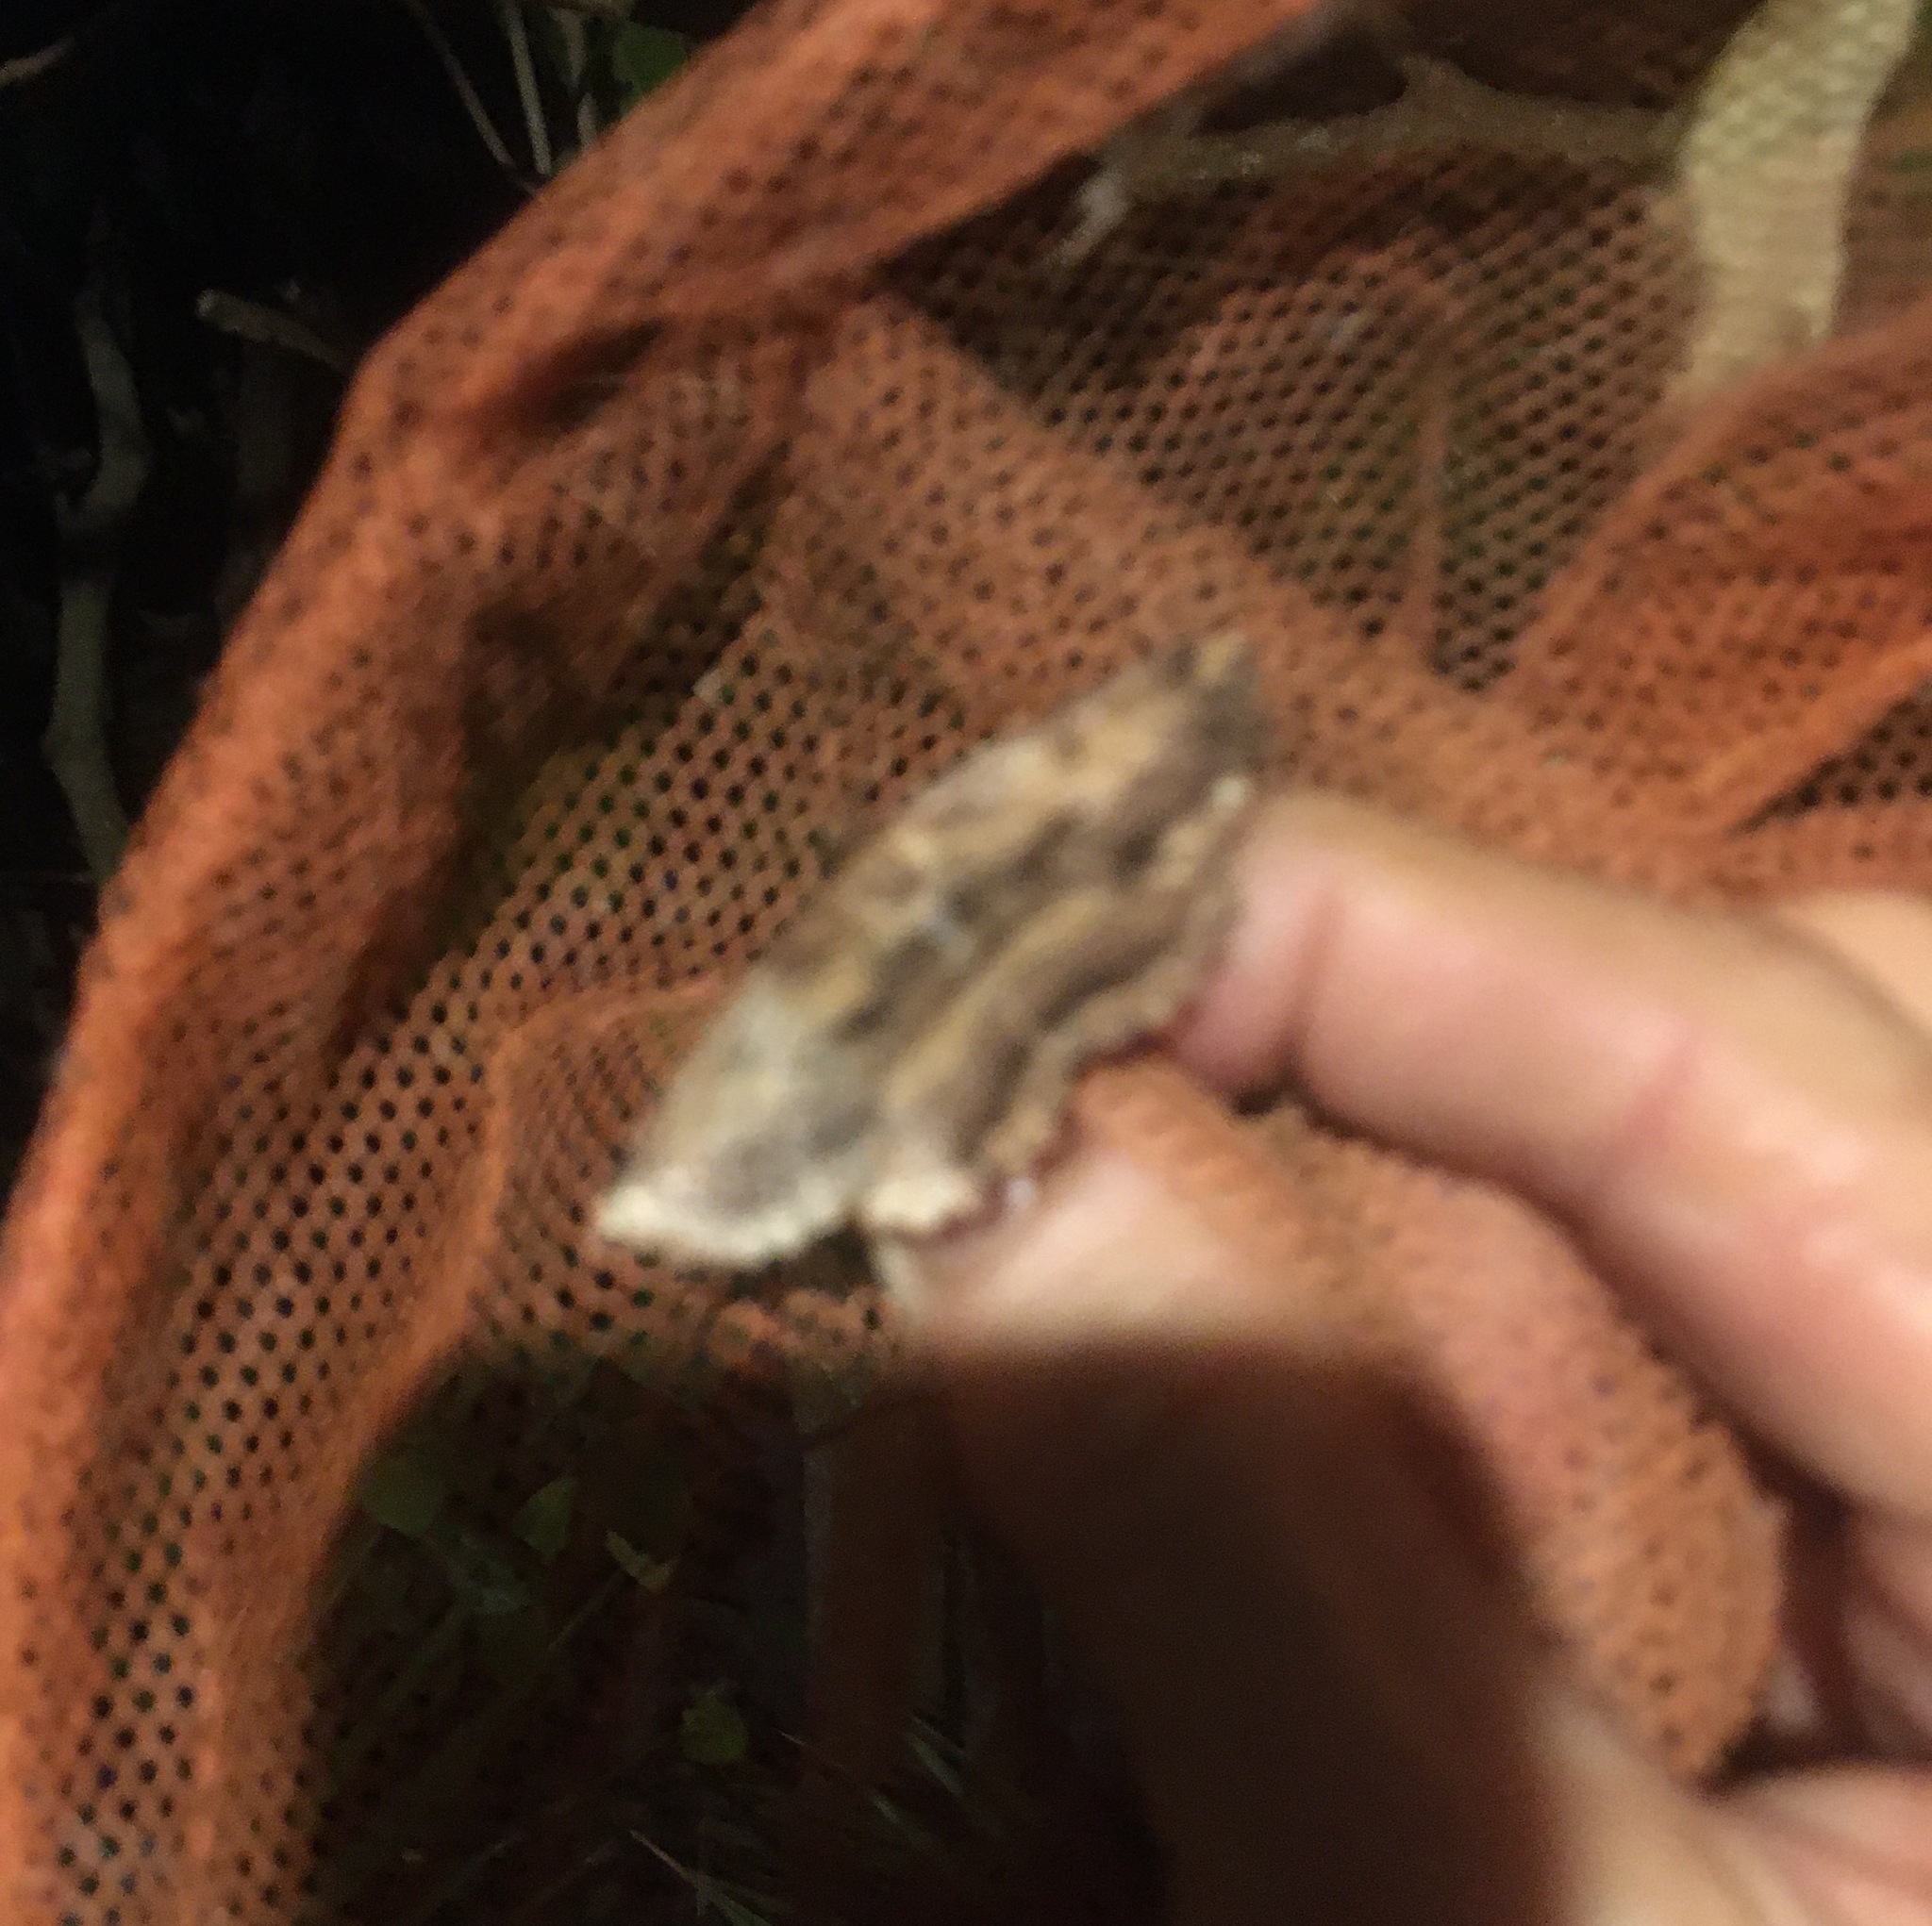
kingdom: Animalia
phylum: Arthropoda
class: Insecta
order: Lepidoptera
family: Geometridae
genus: Gellonia
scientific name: Gellonia dejectaria
